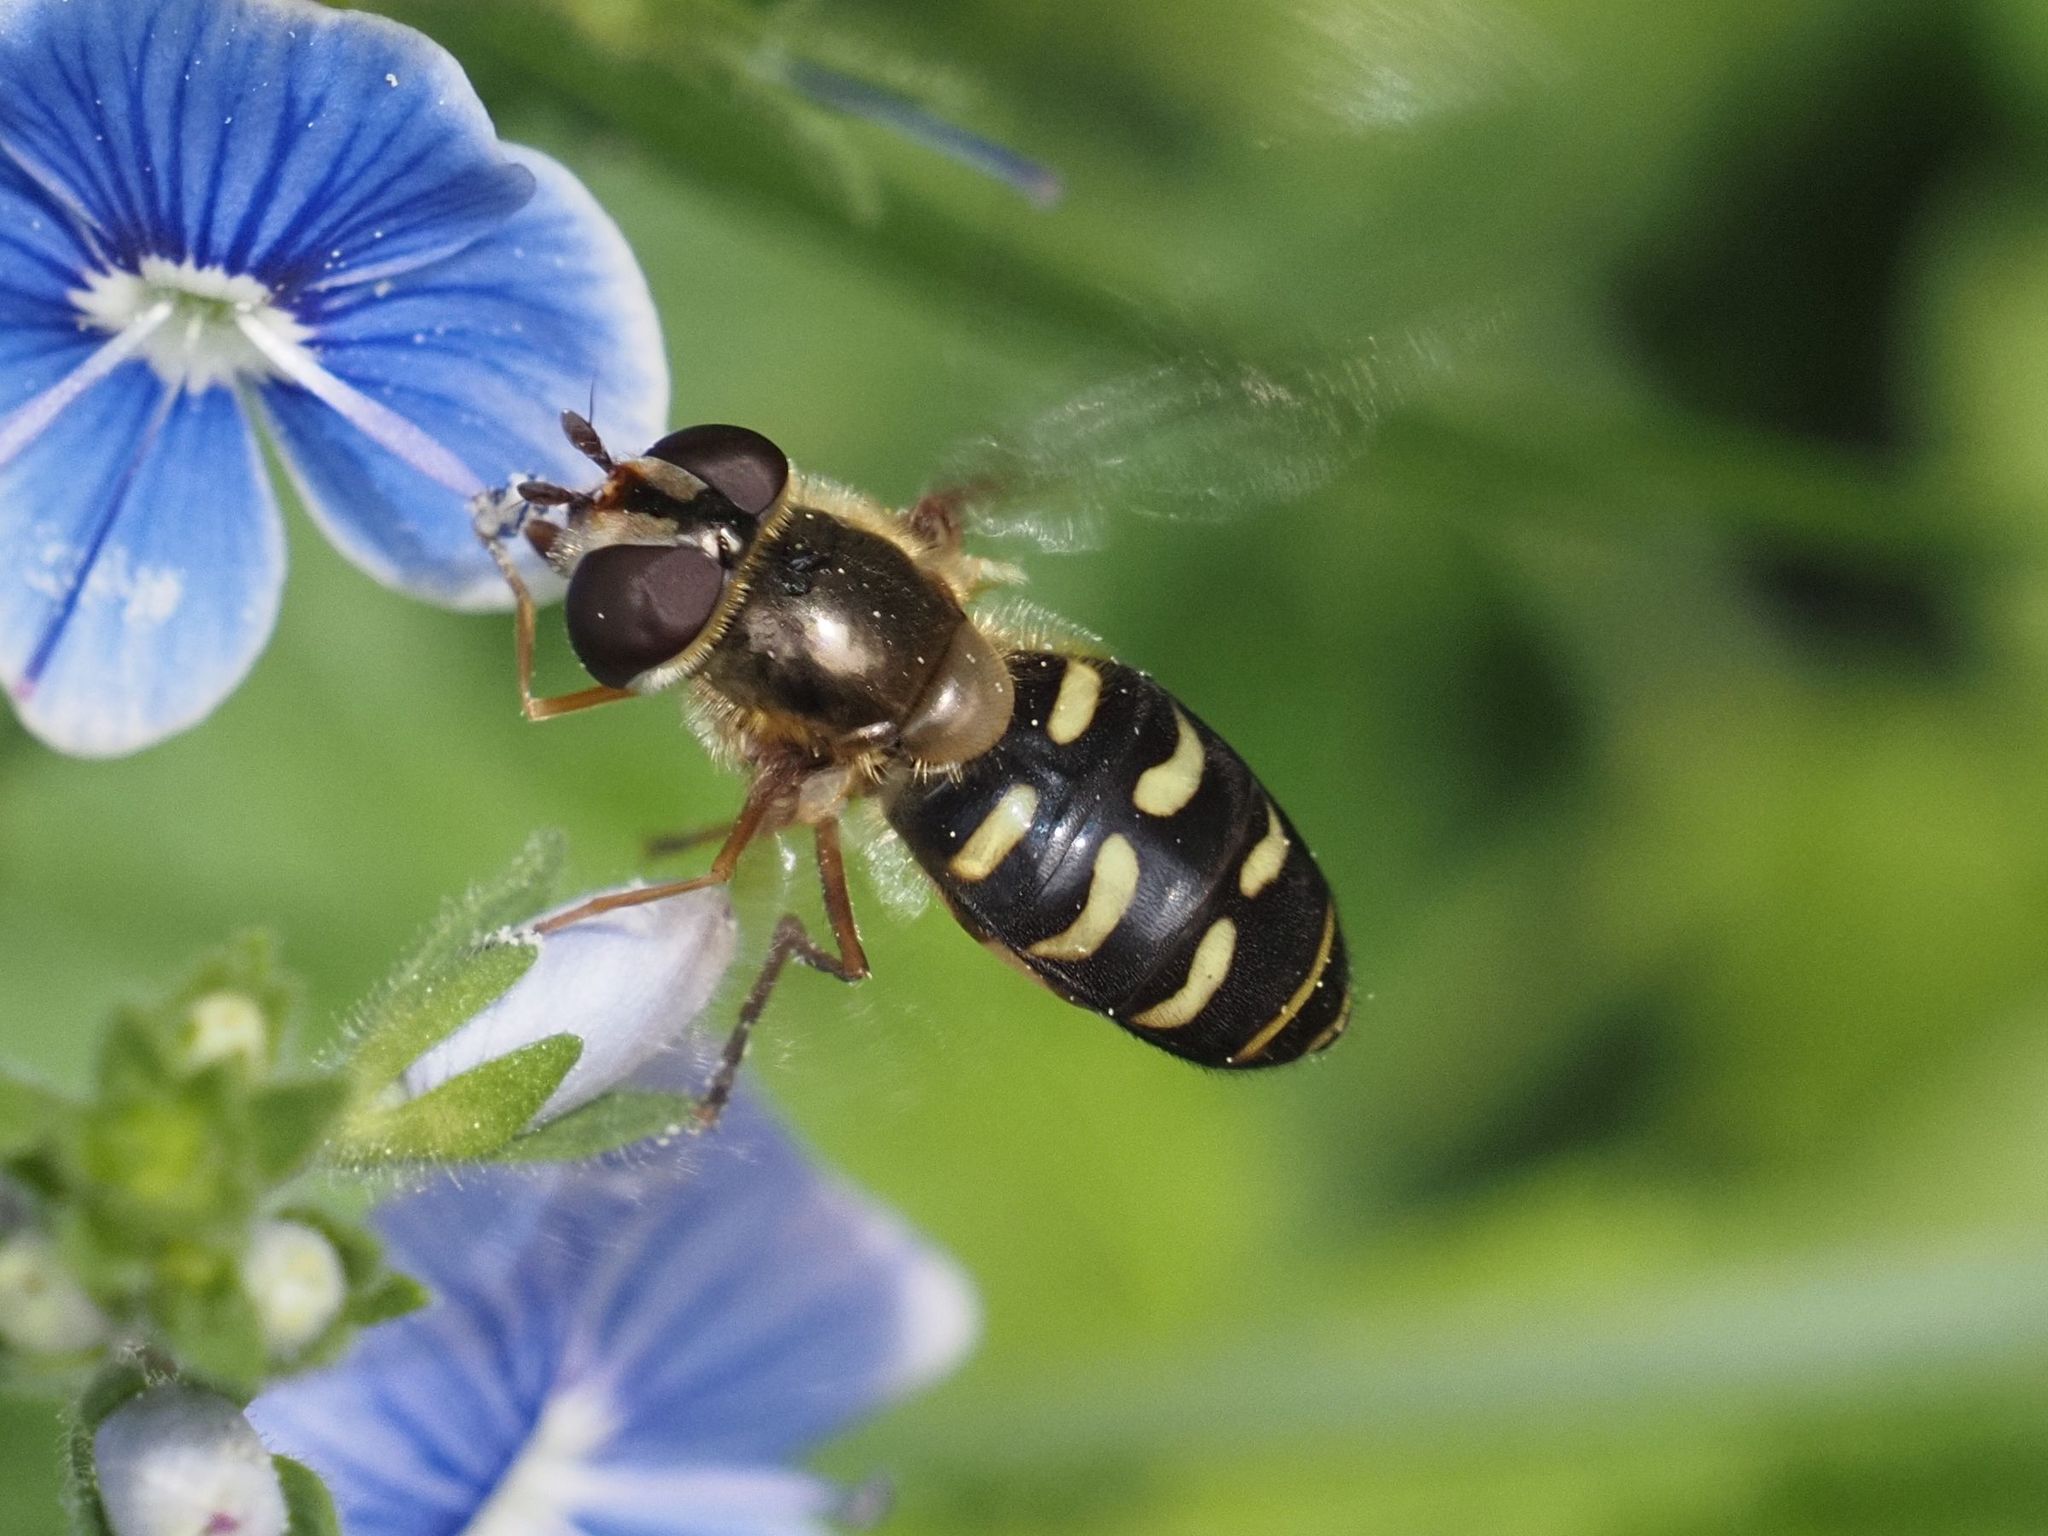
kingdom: Animalia
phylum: Arthropoda
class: Insecta
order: Diptera
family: Syrphidae
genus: Lapposyrphus
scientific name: Lapposyrphus lapponicus
